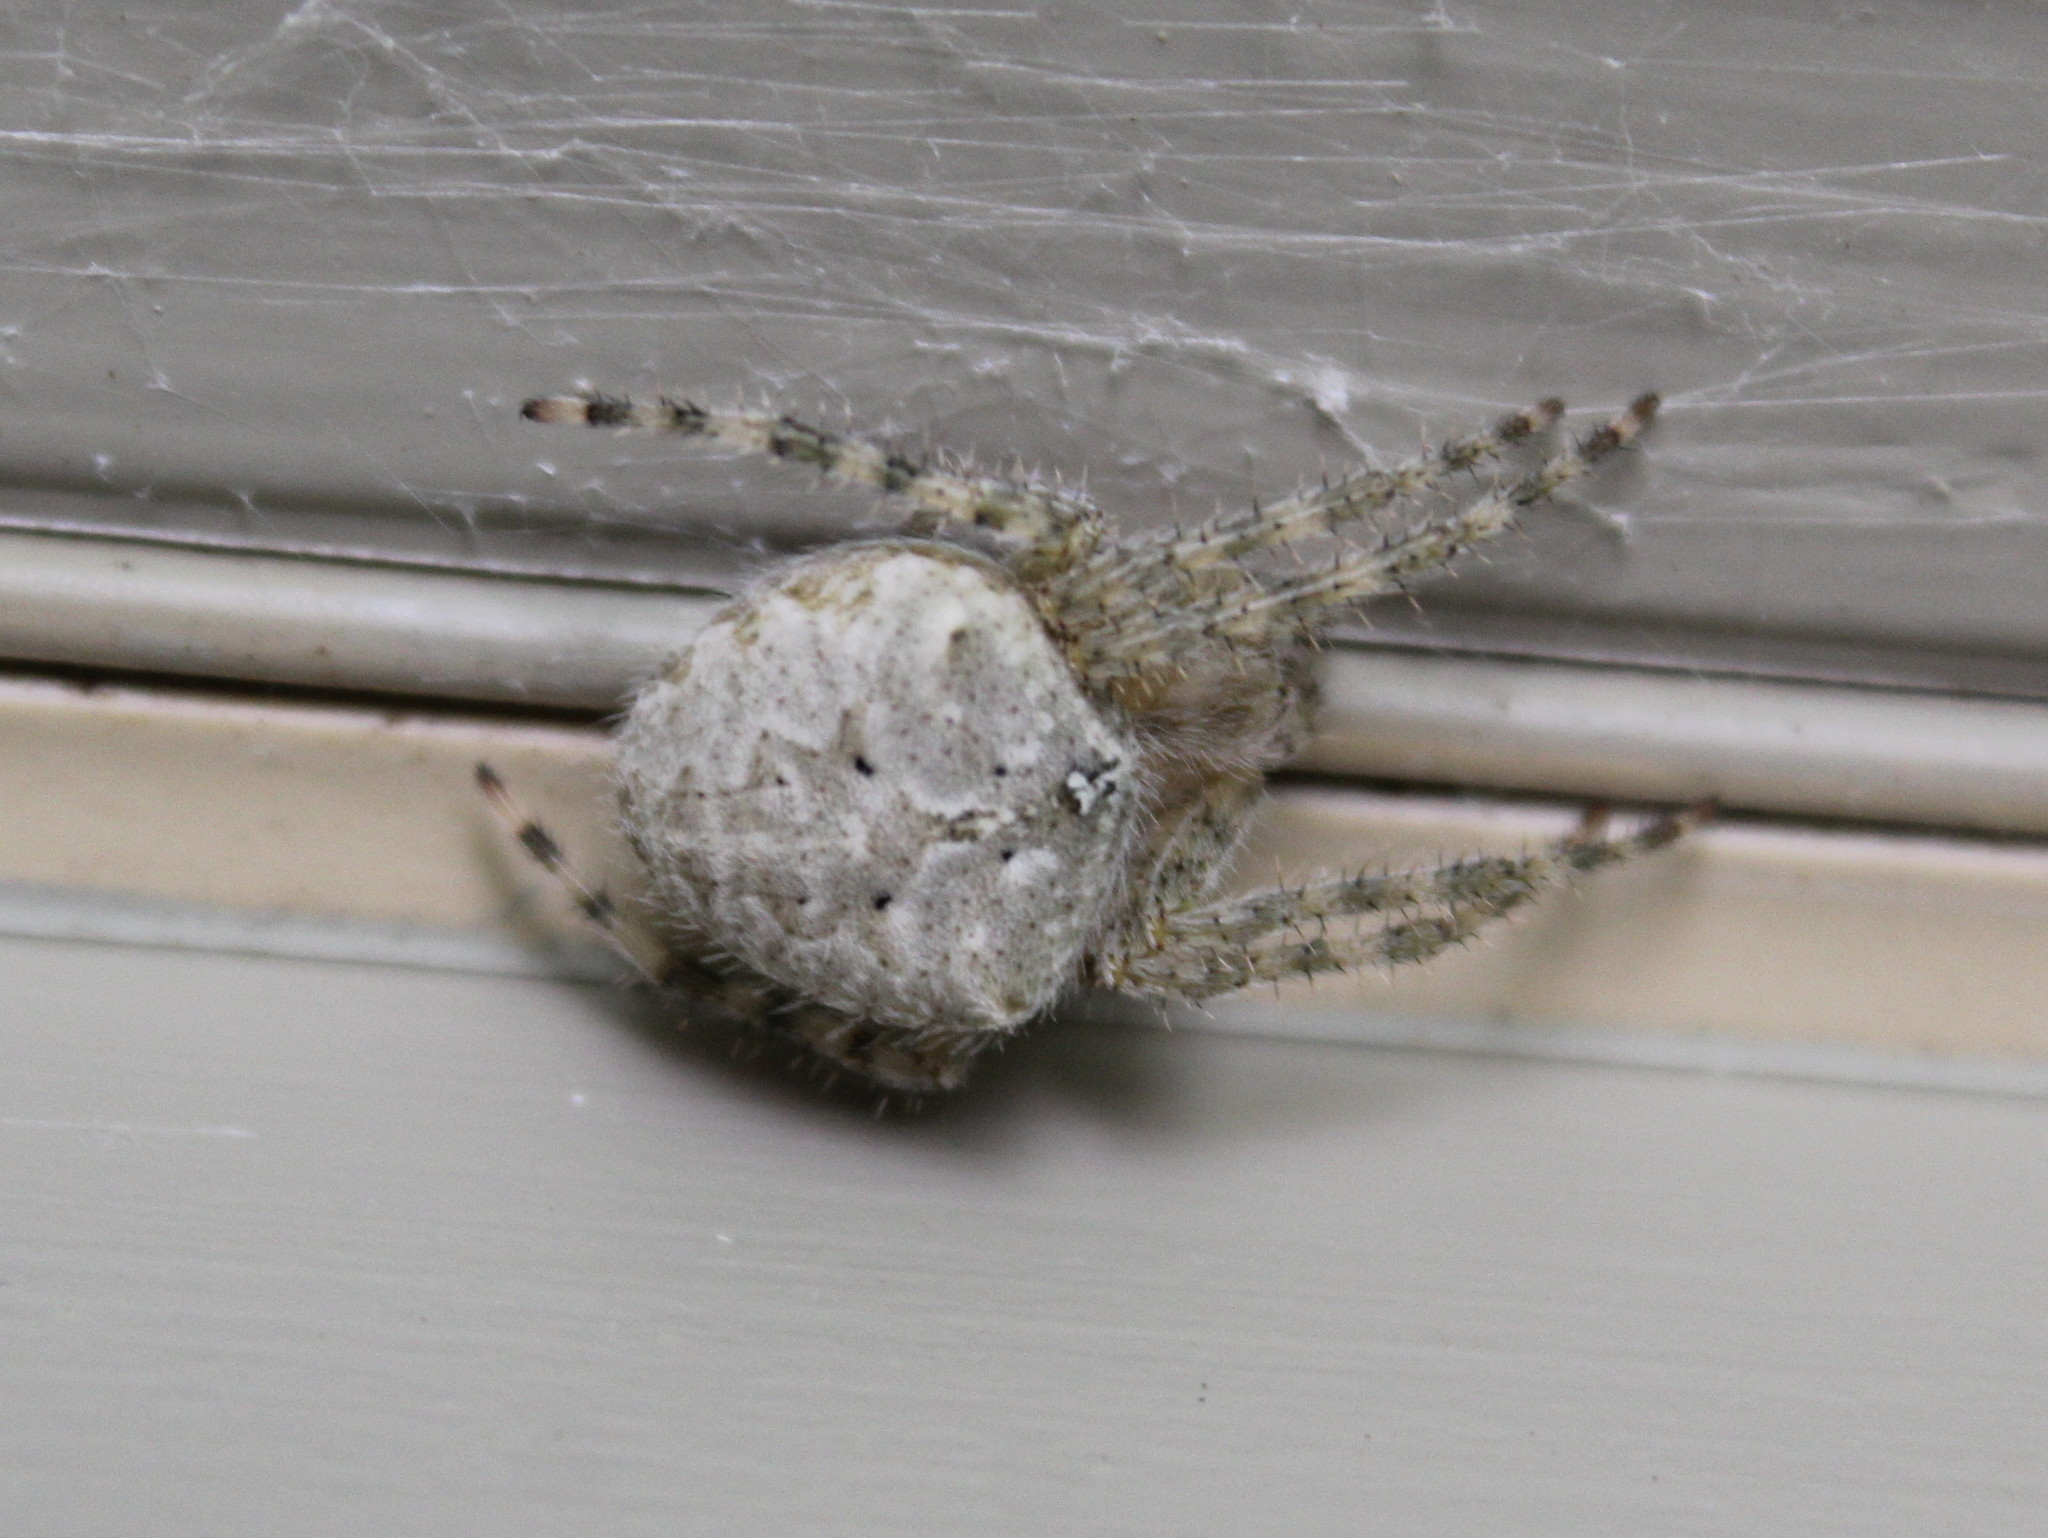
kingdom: Animalia
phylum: Arthropoda
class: Arachnida
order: Araneae
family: Araneidae
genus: Araneus
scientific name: Araneus cavaticus
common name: Barn orbweaver
